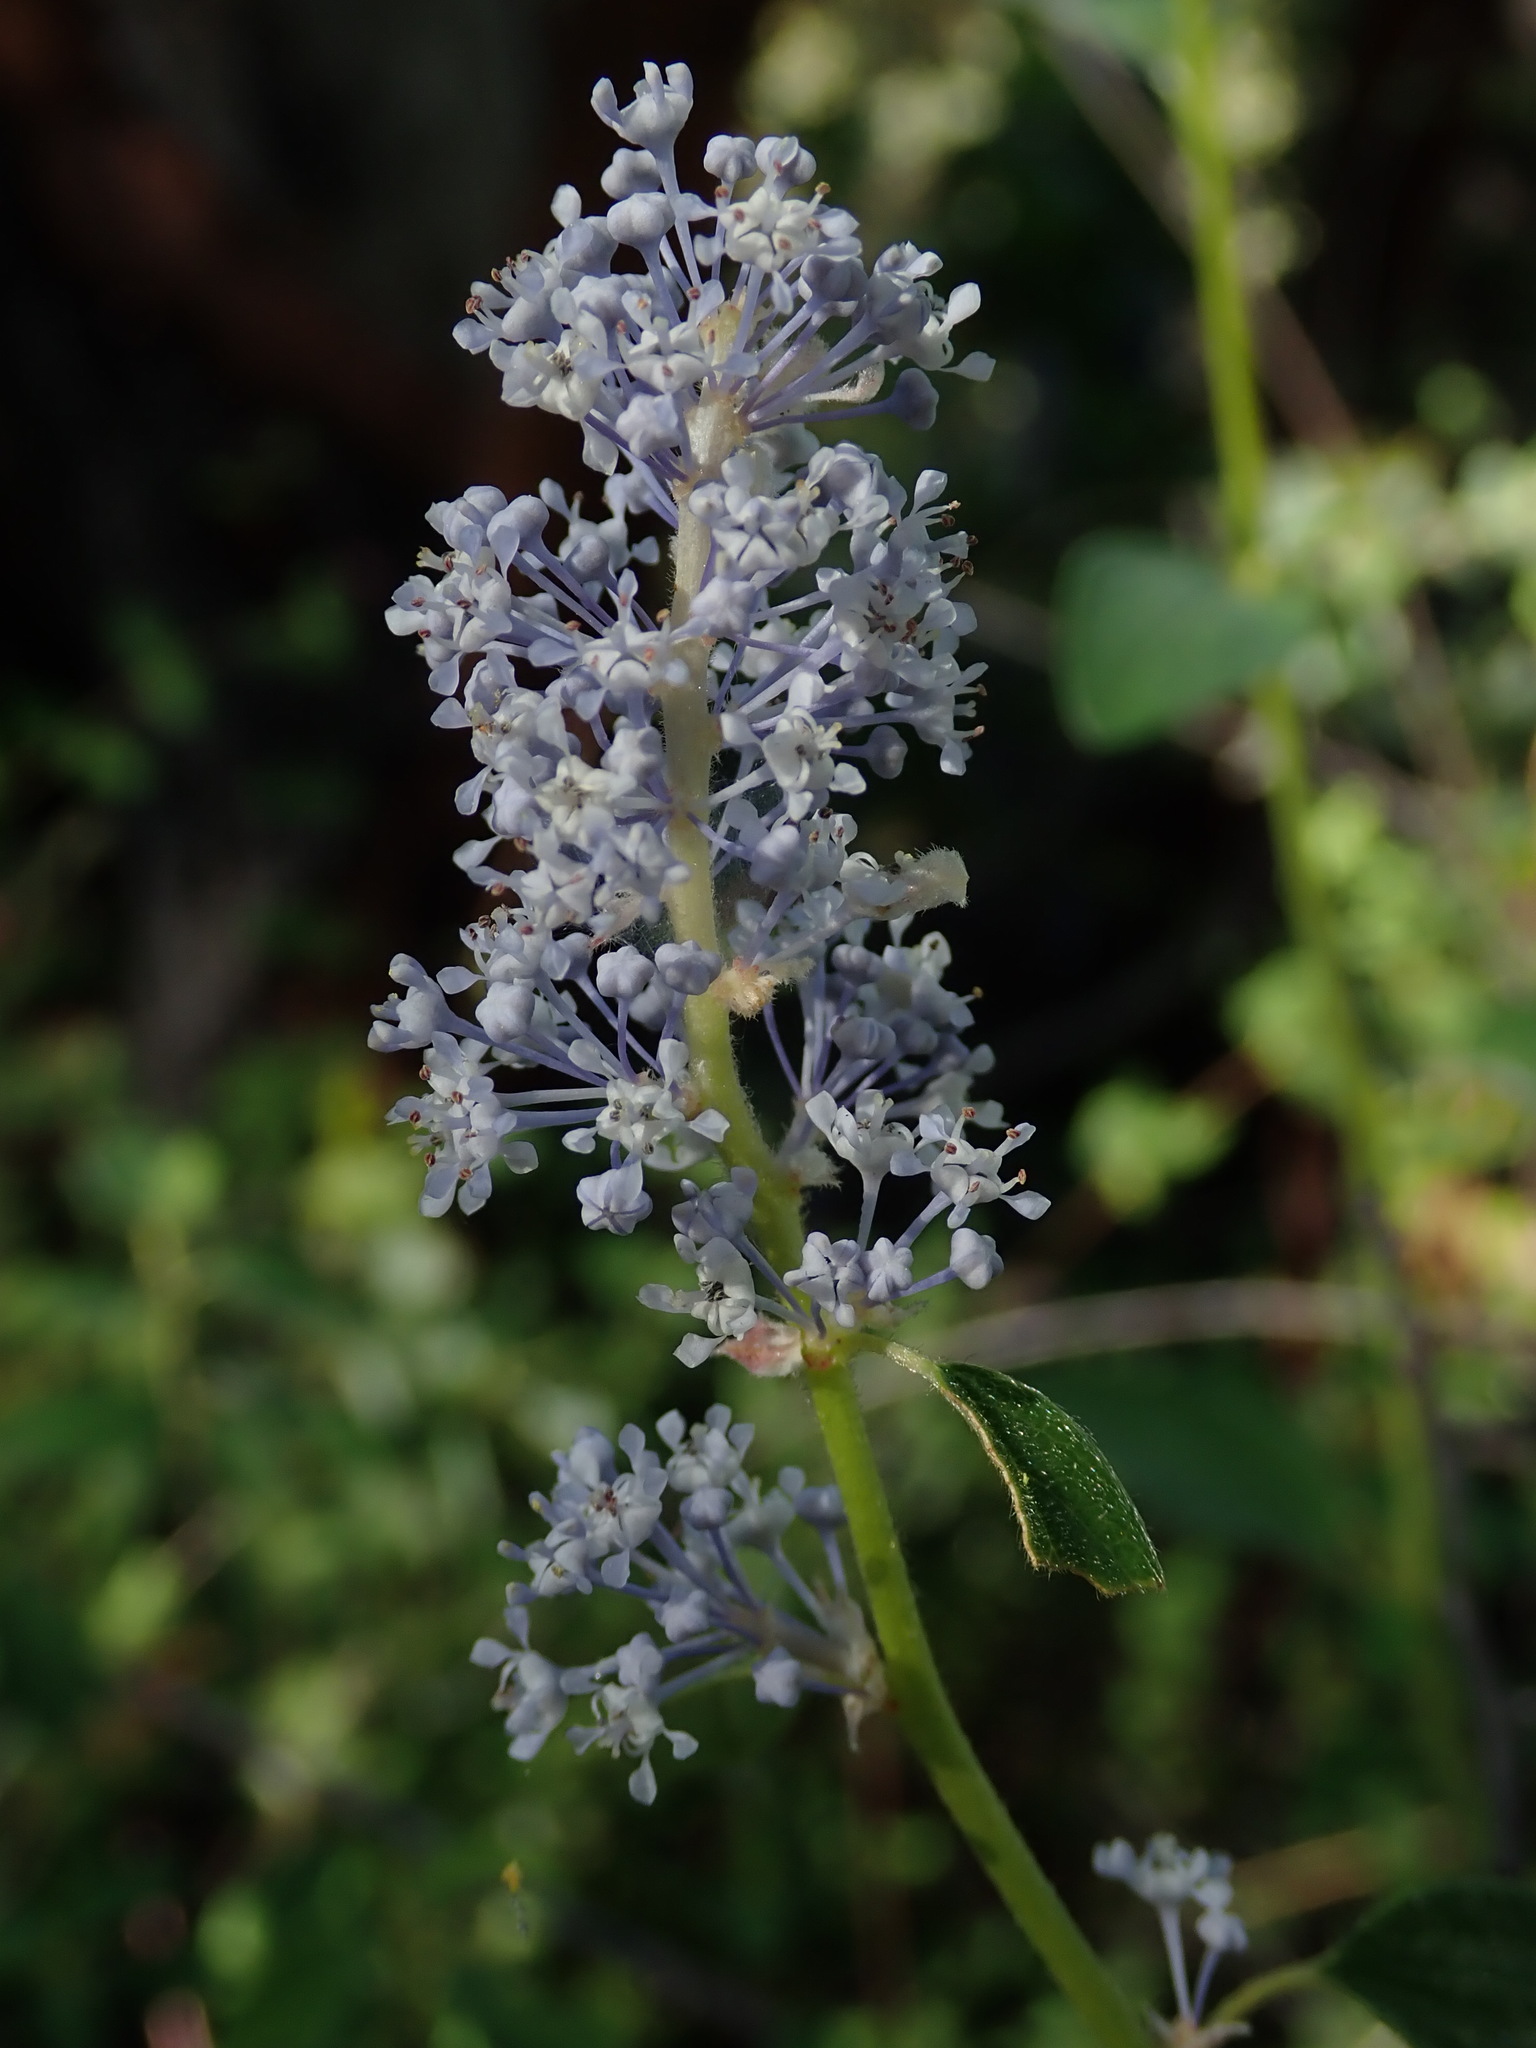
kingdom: Plantae
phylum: Tracheophyta
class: Magnoliopsida
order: Rosales
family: Rhamnaceae
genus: Ceanothus
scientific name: Ceanothus integerrimus
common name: Deerbrush ceanothus
